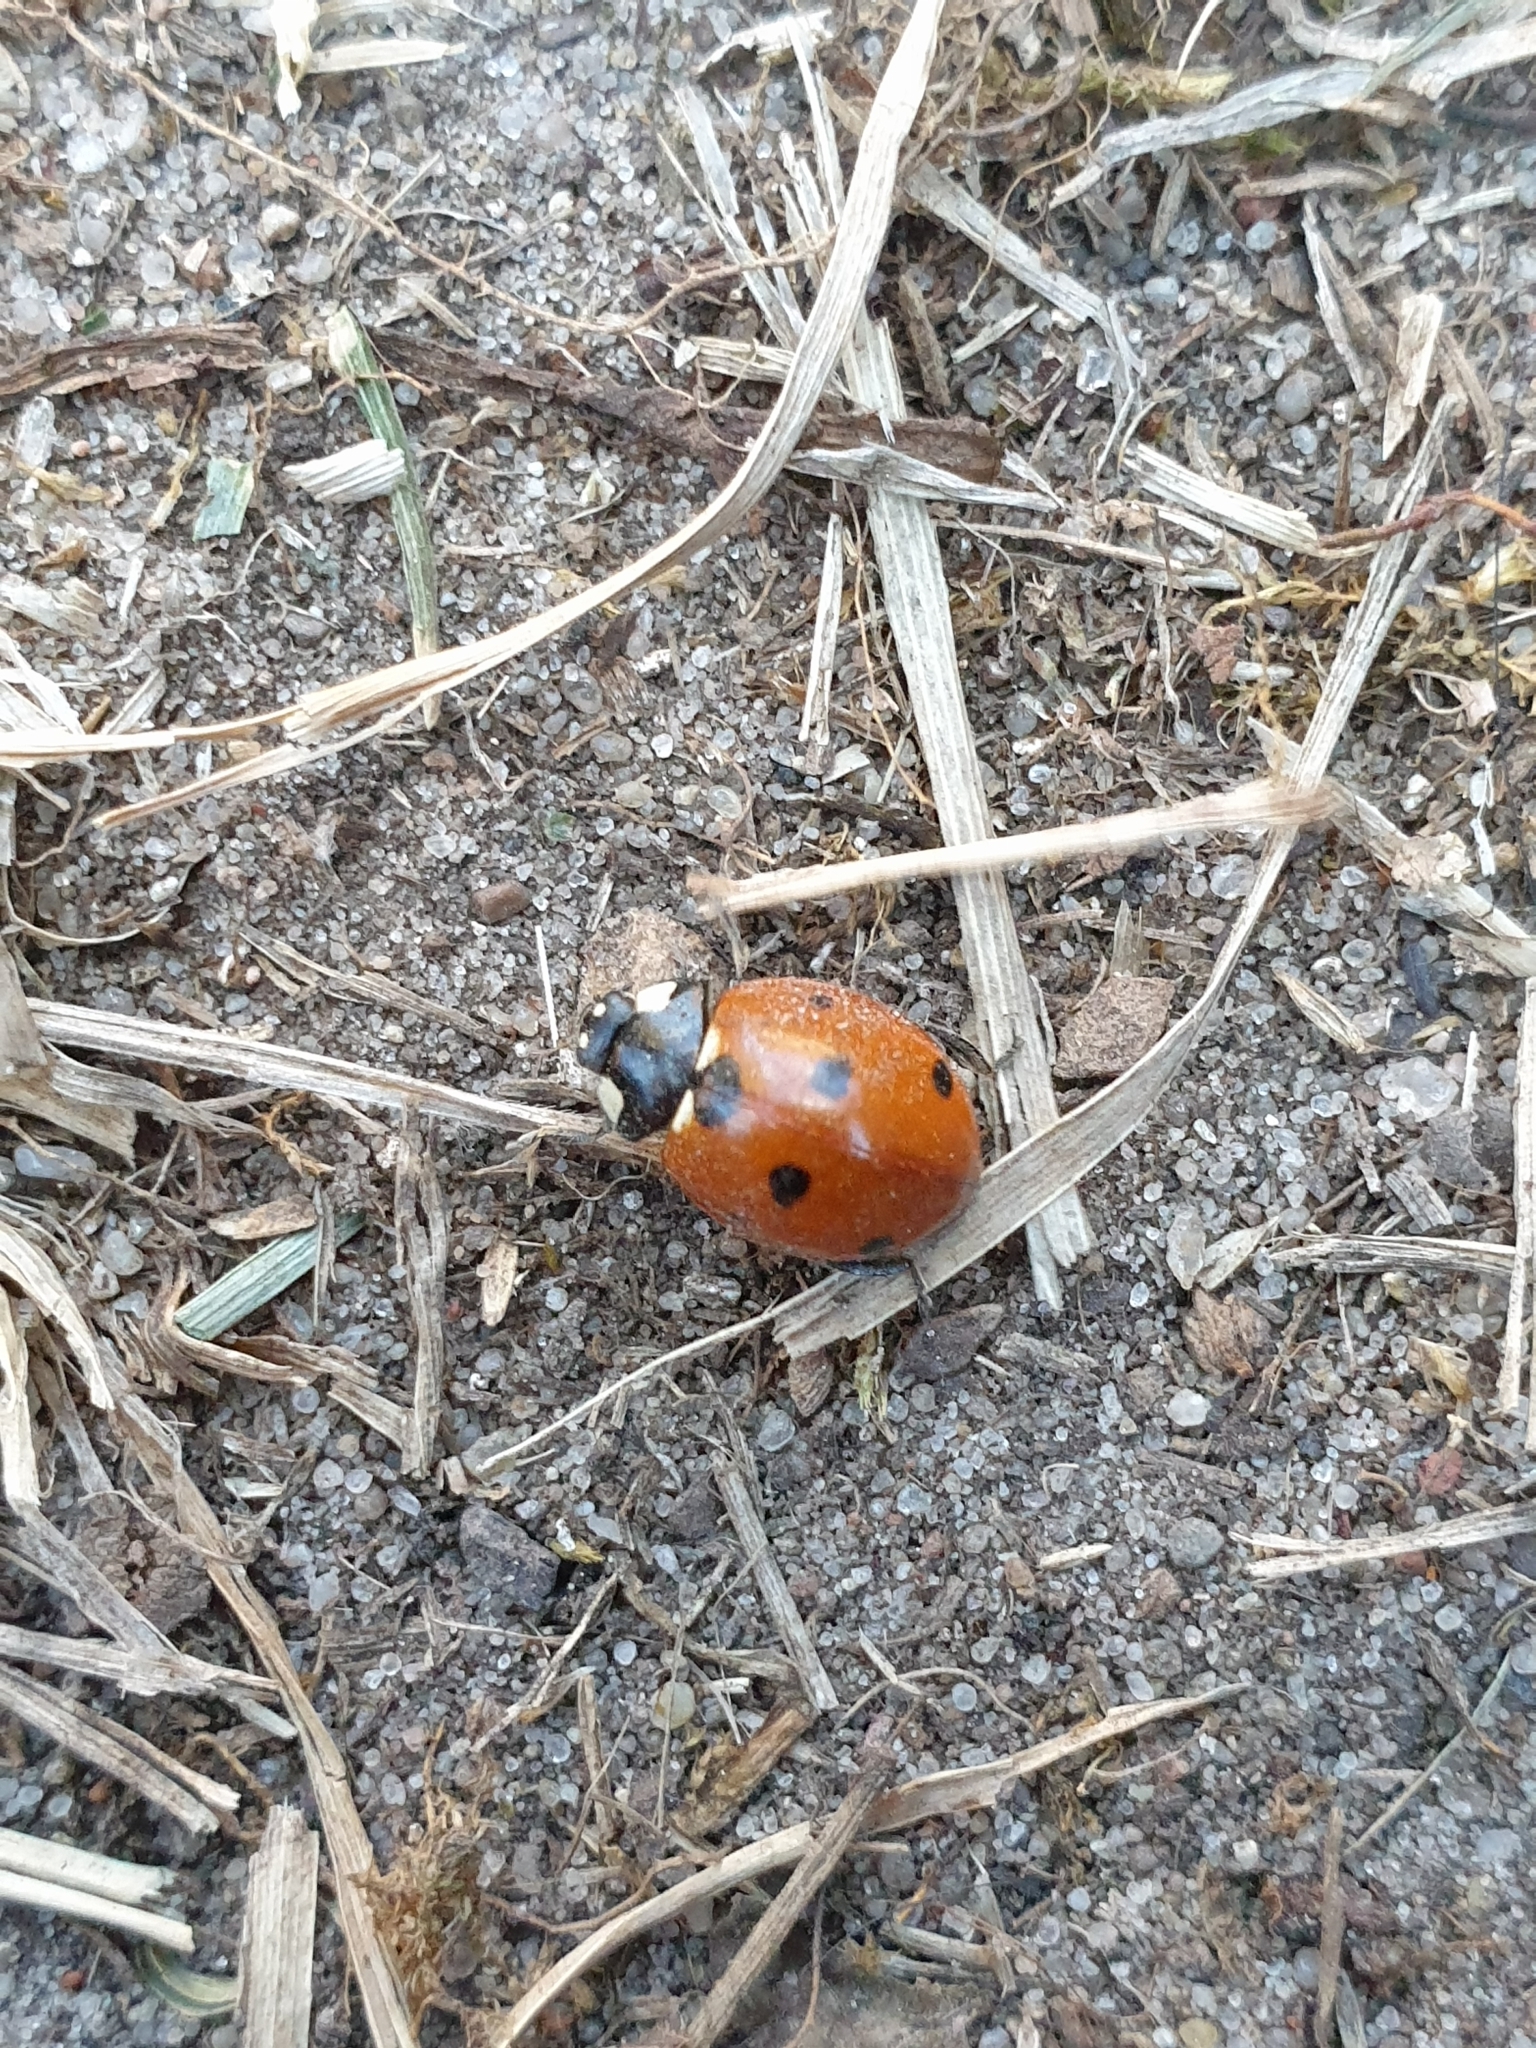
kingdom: Animalia
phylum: Arthropoda
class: Insecta
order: Coleoptera
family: Coccinellidae
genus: Coccinella
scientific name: Coccinella septempunctata
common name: Sevenspotted lady beetle
